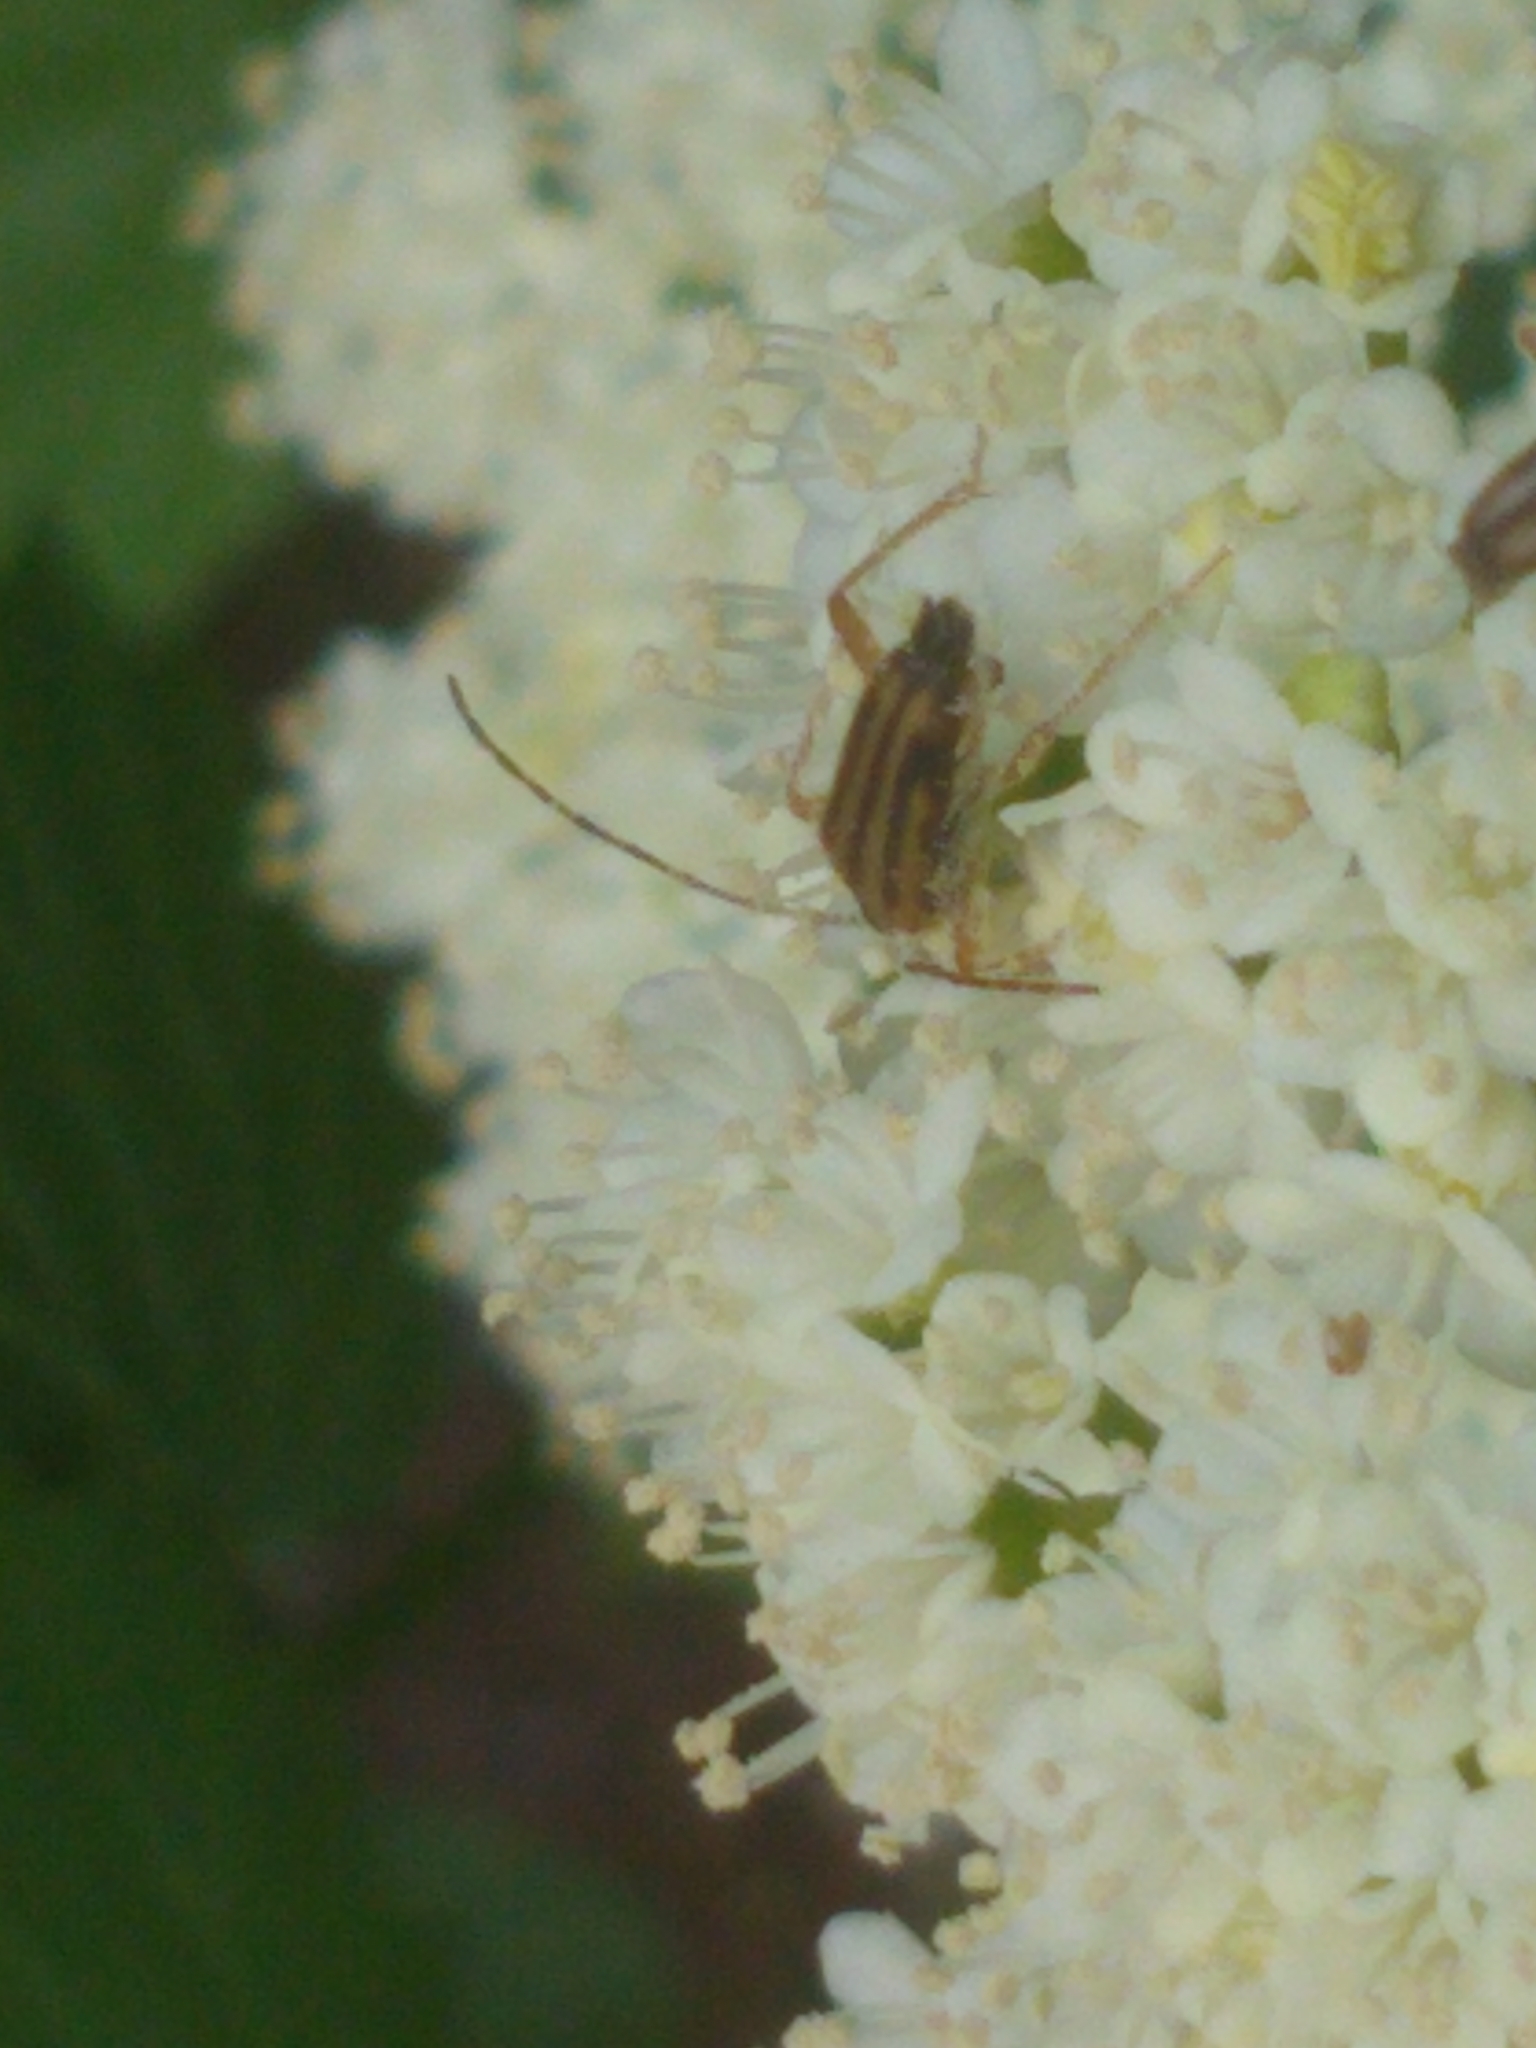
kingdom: Animalia
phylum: Arthropoda
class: Insecta
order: Coleoptera
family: Cerambycidae
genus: Analeptura
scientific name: Analeptura lineola
